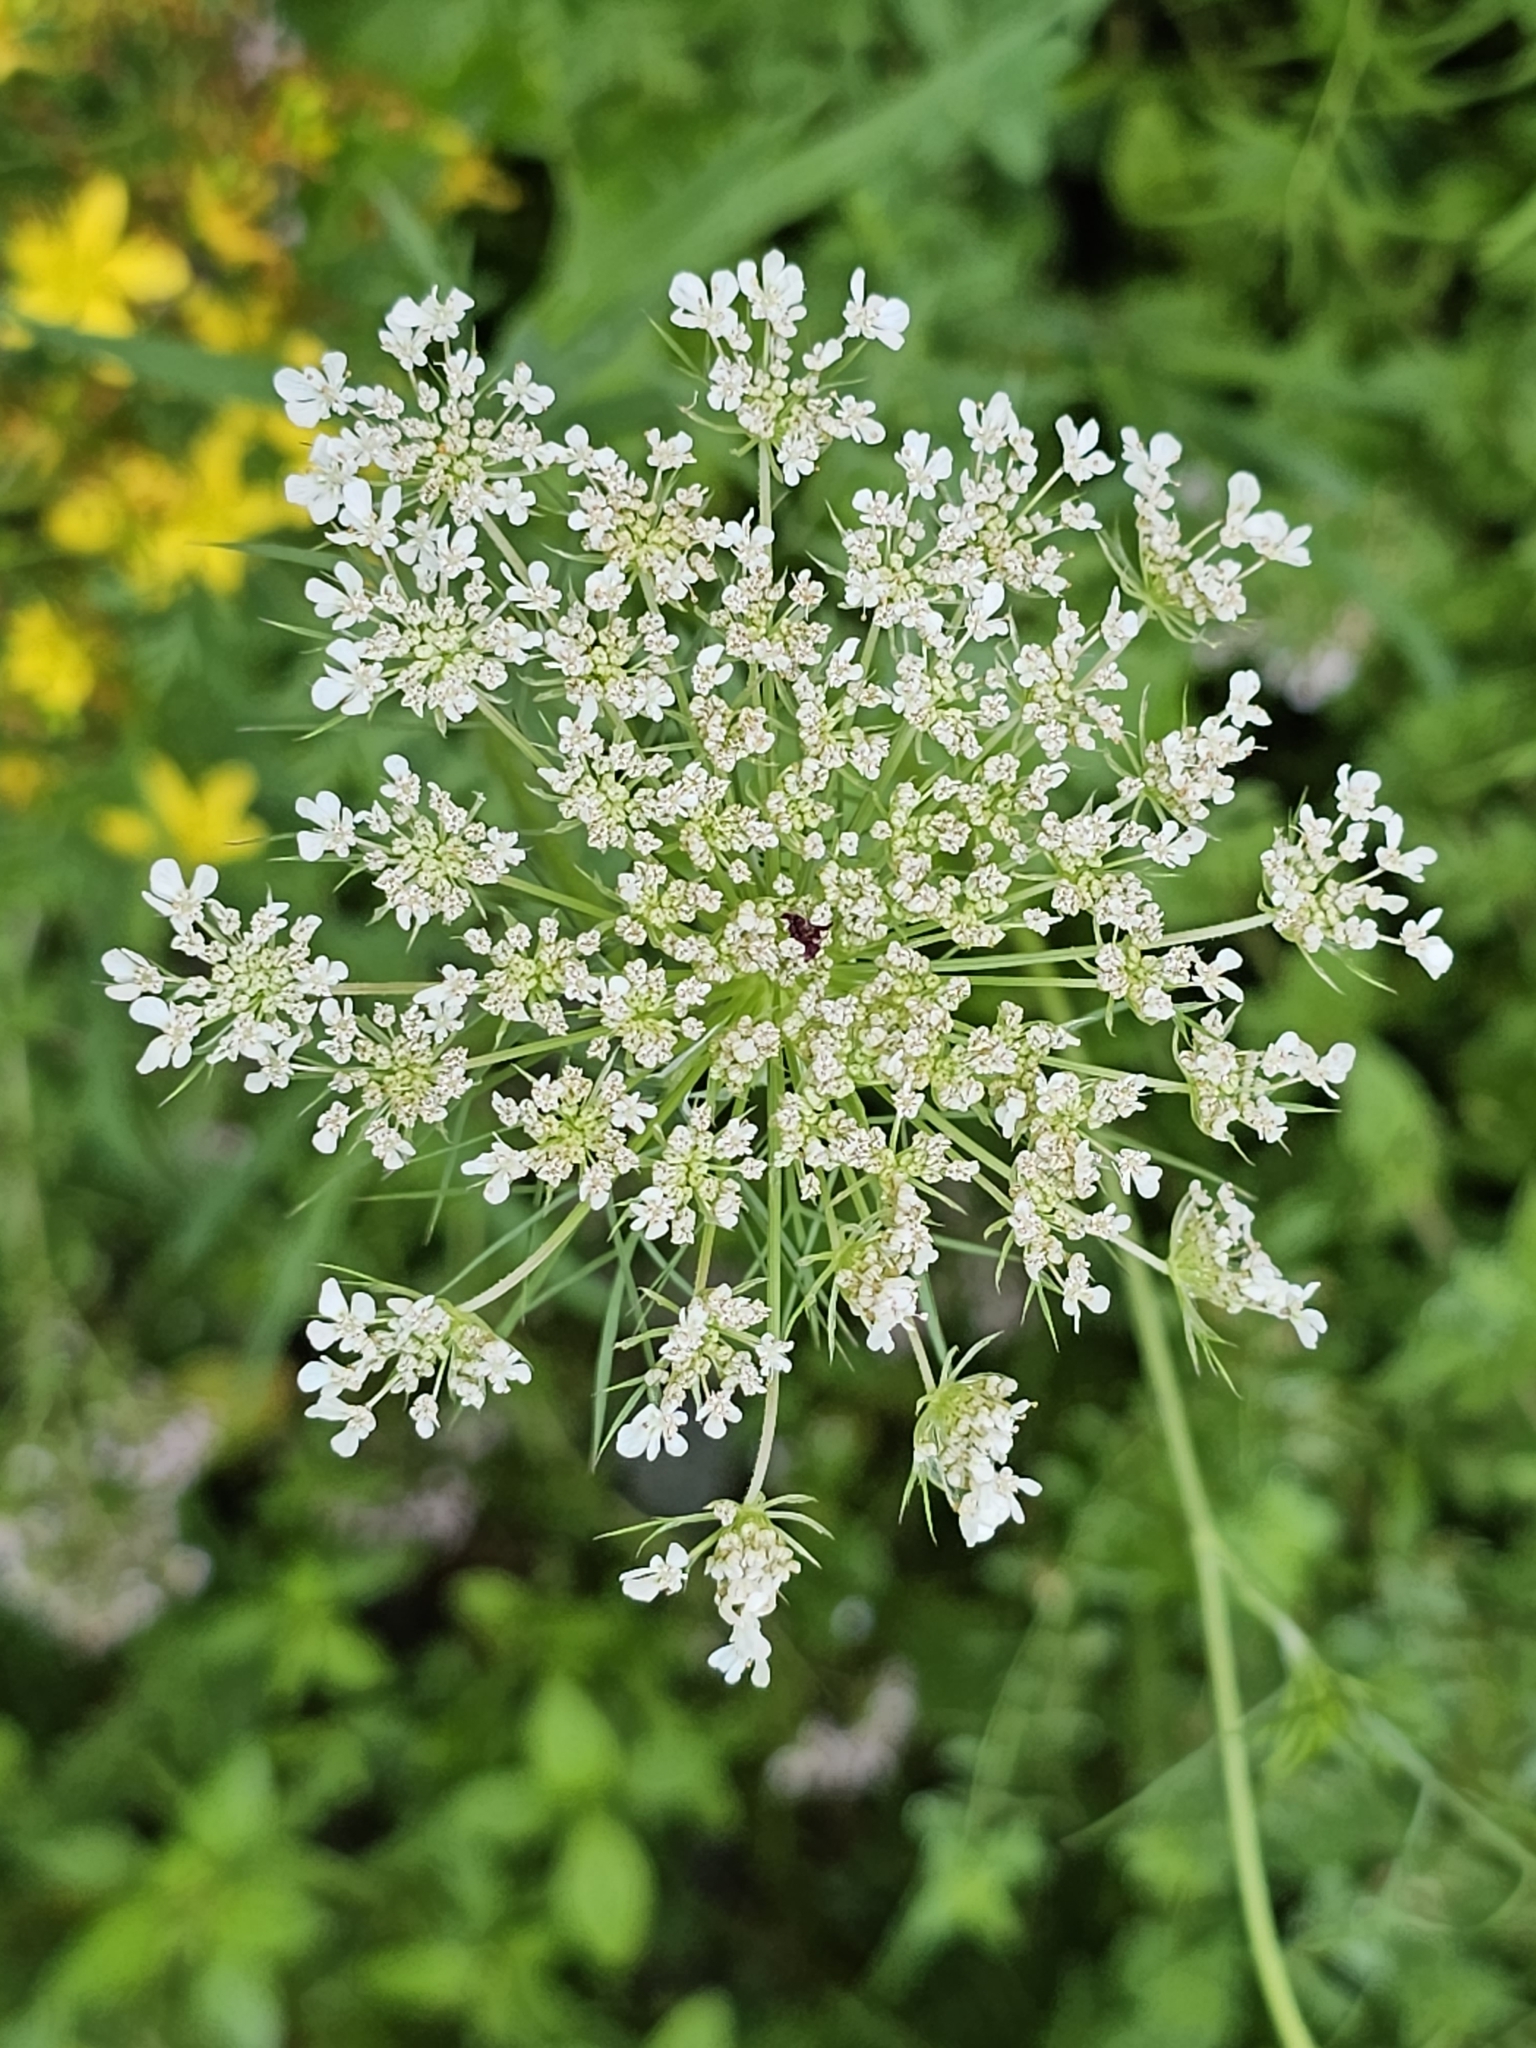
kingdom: Plantae
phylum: Tracheophyta
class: Magnoliopsida
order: Apiales
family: Apiaceae
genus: Daucus
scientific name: Daucus carota
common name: Wild carrot
